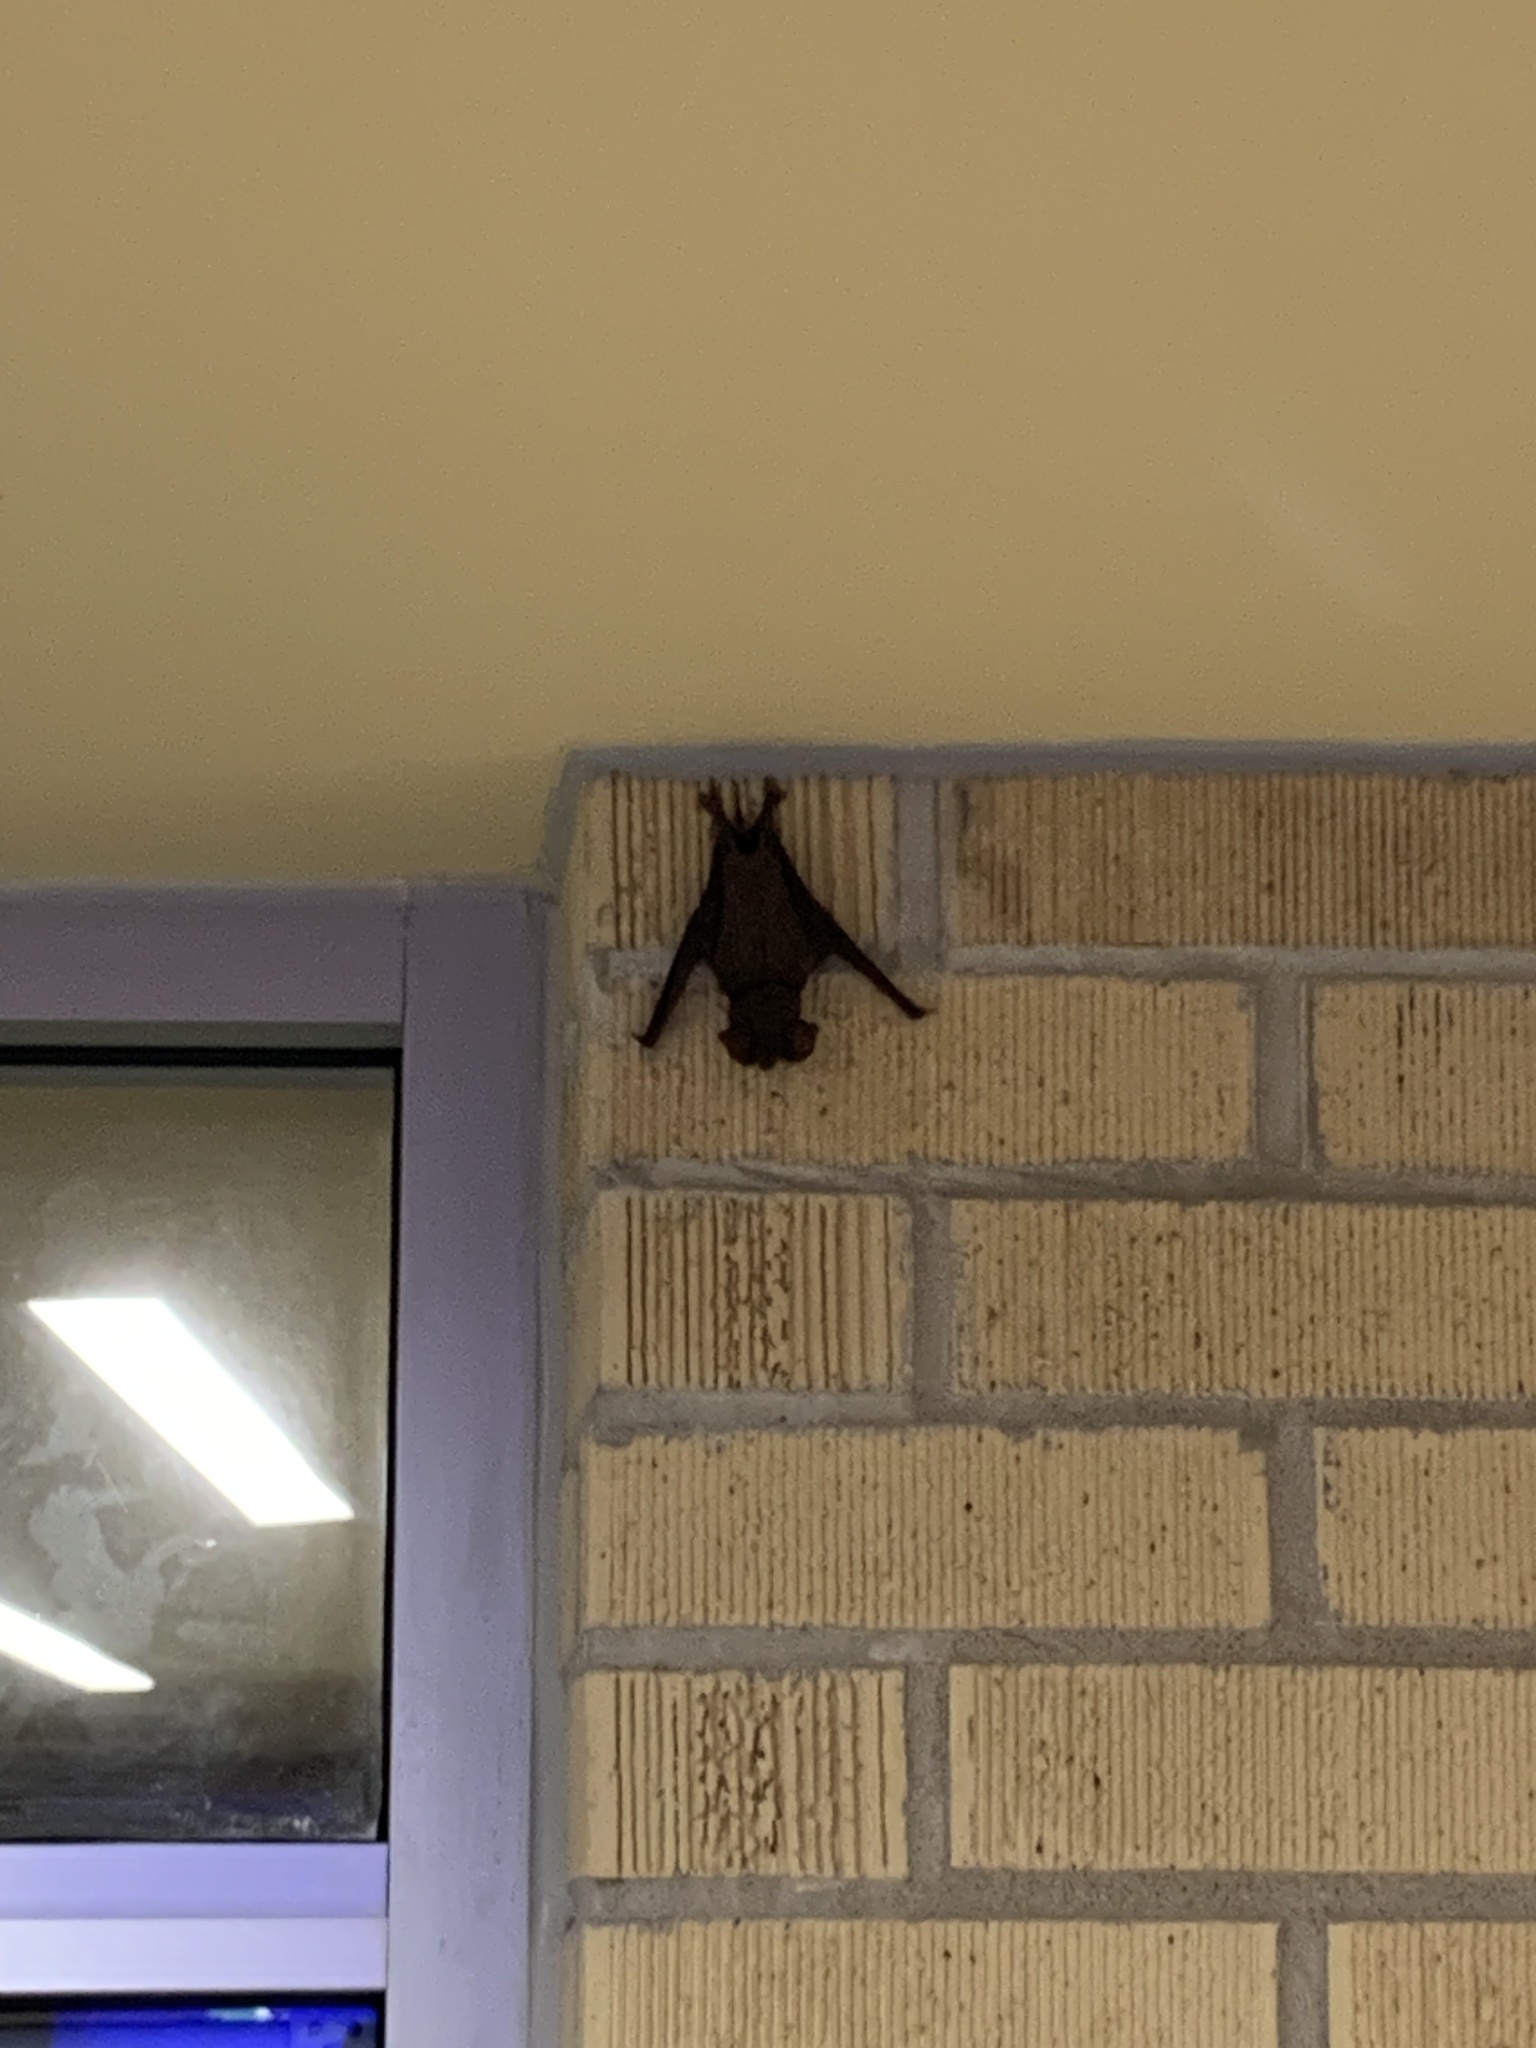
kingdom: Animalia
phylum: Chordata
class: Mammalia
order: Chiroptera
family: Molossidae
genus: Tadarida
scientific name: Tadarida brasiliensis
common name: Mexican free-tailed bat
